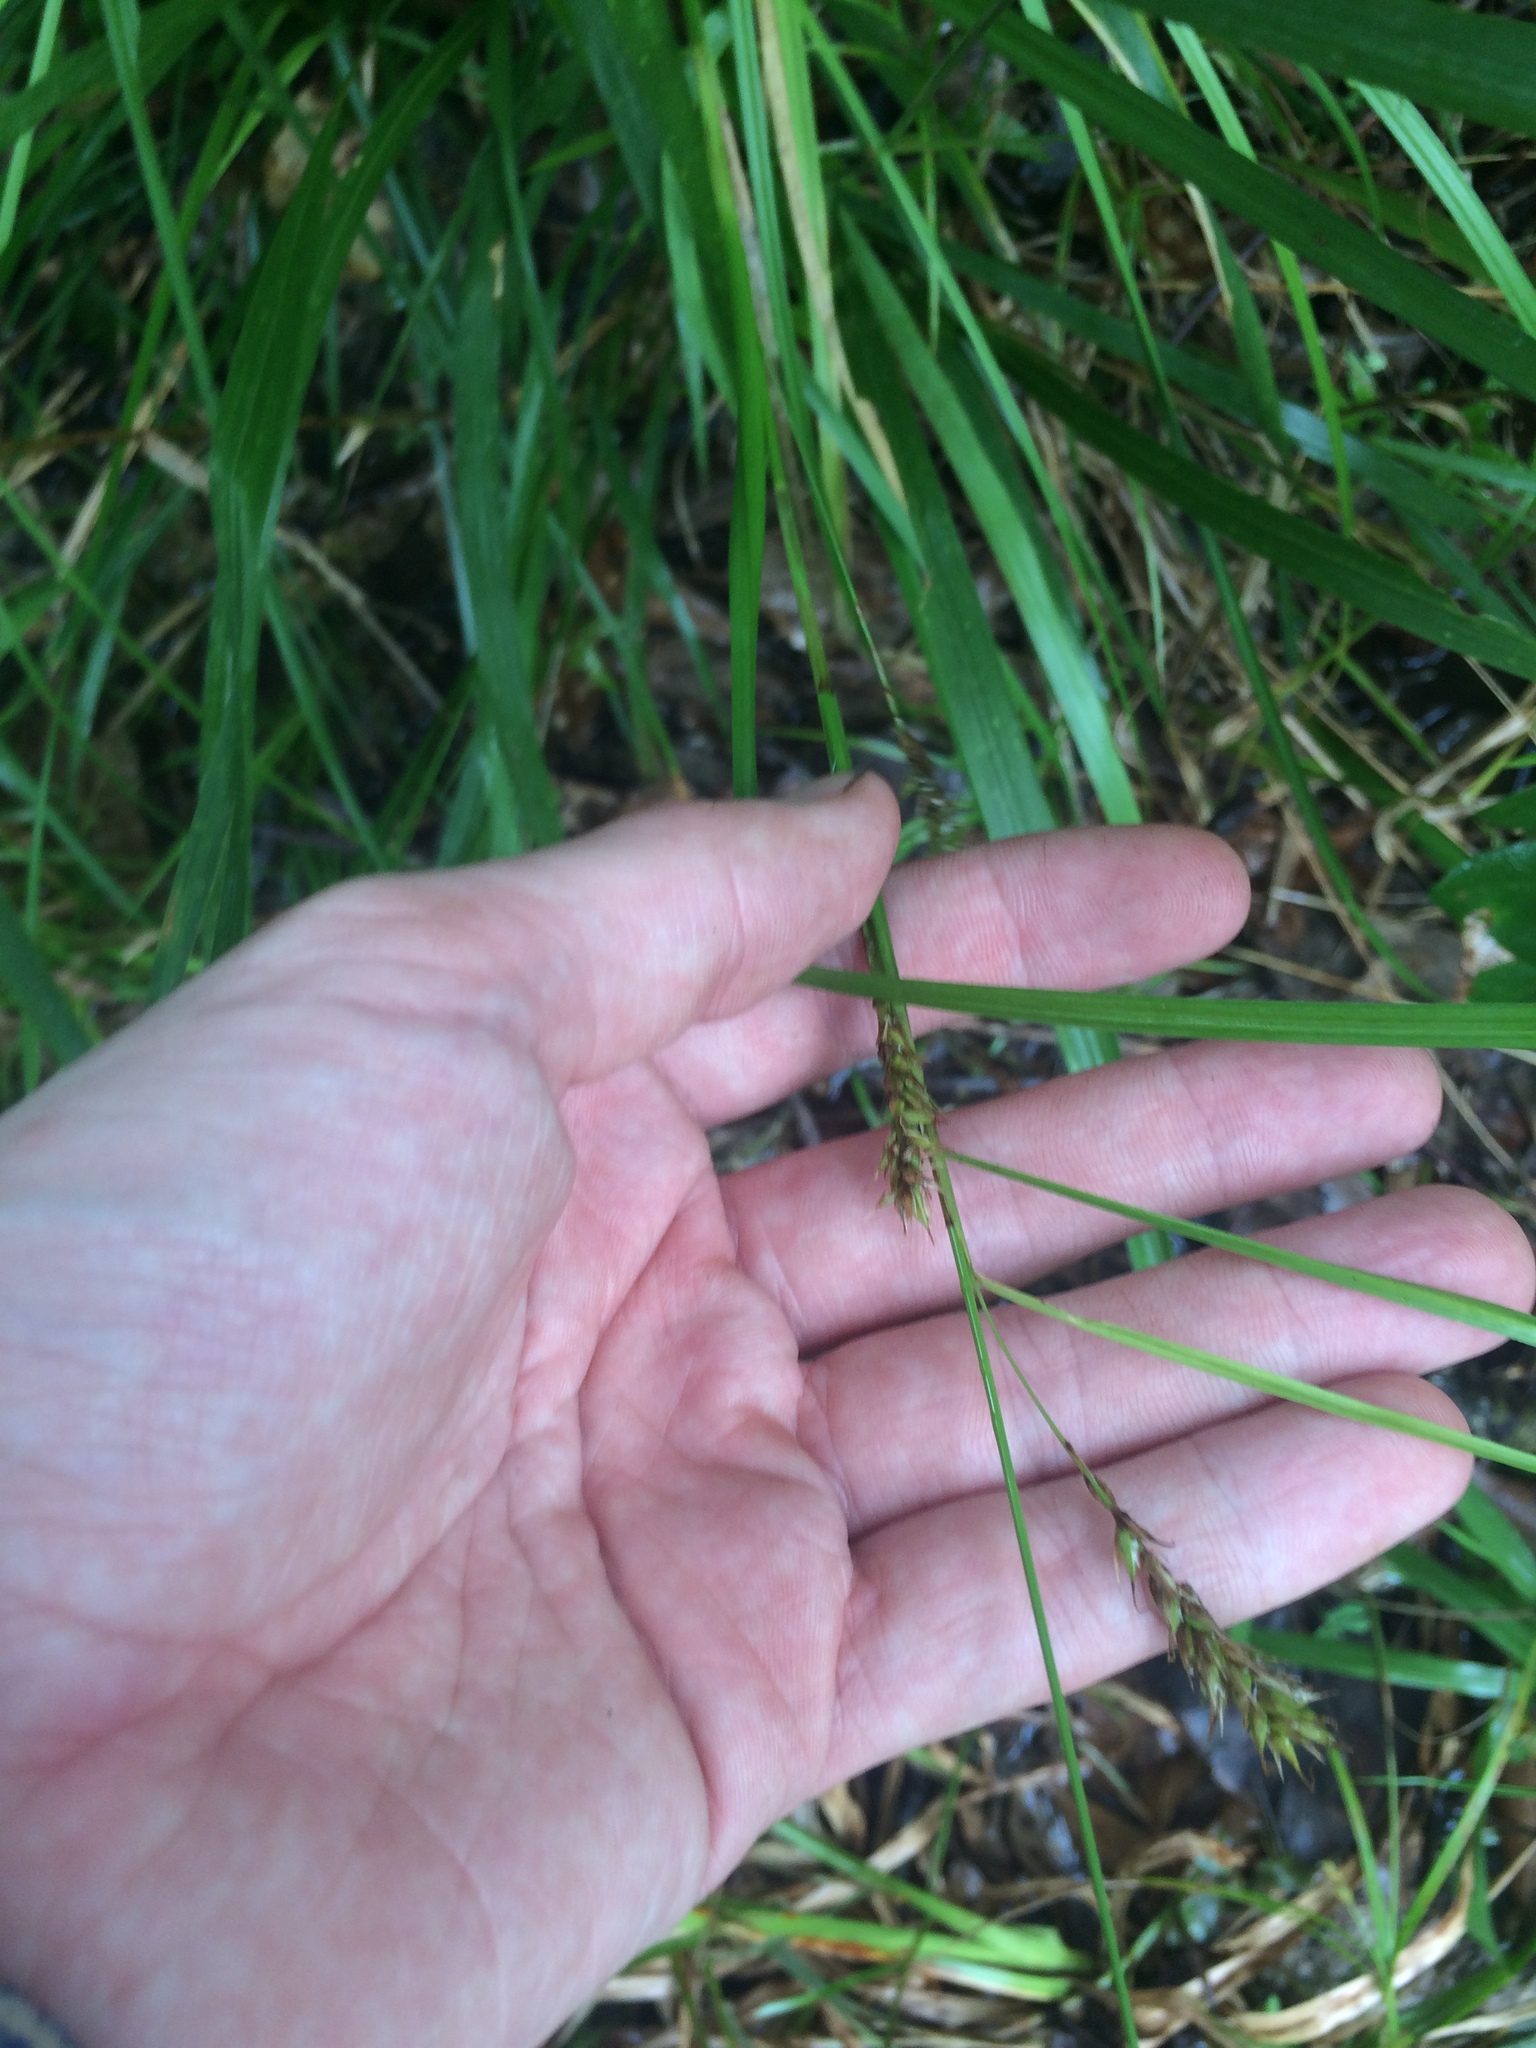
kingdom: Plantae
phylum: Tracheophyta
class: Liliopsida
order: Poales
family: Cyperaceae
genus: Carex
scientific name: Carex cherokeensis
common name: Cherokee sedge
